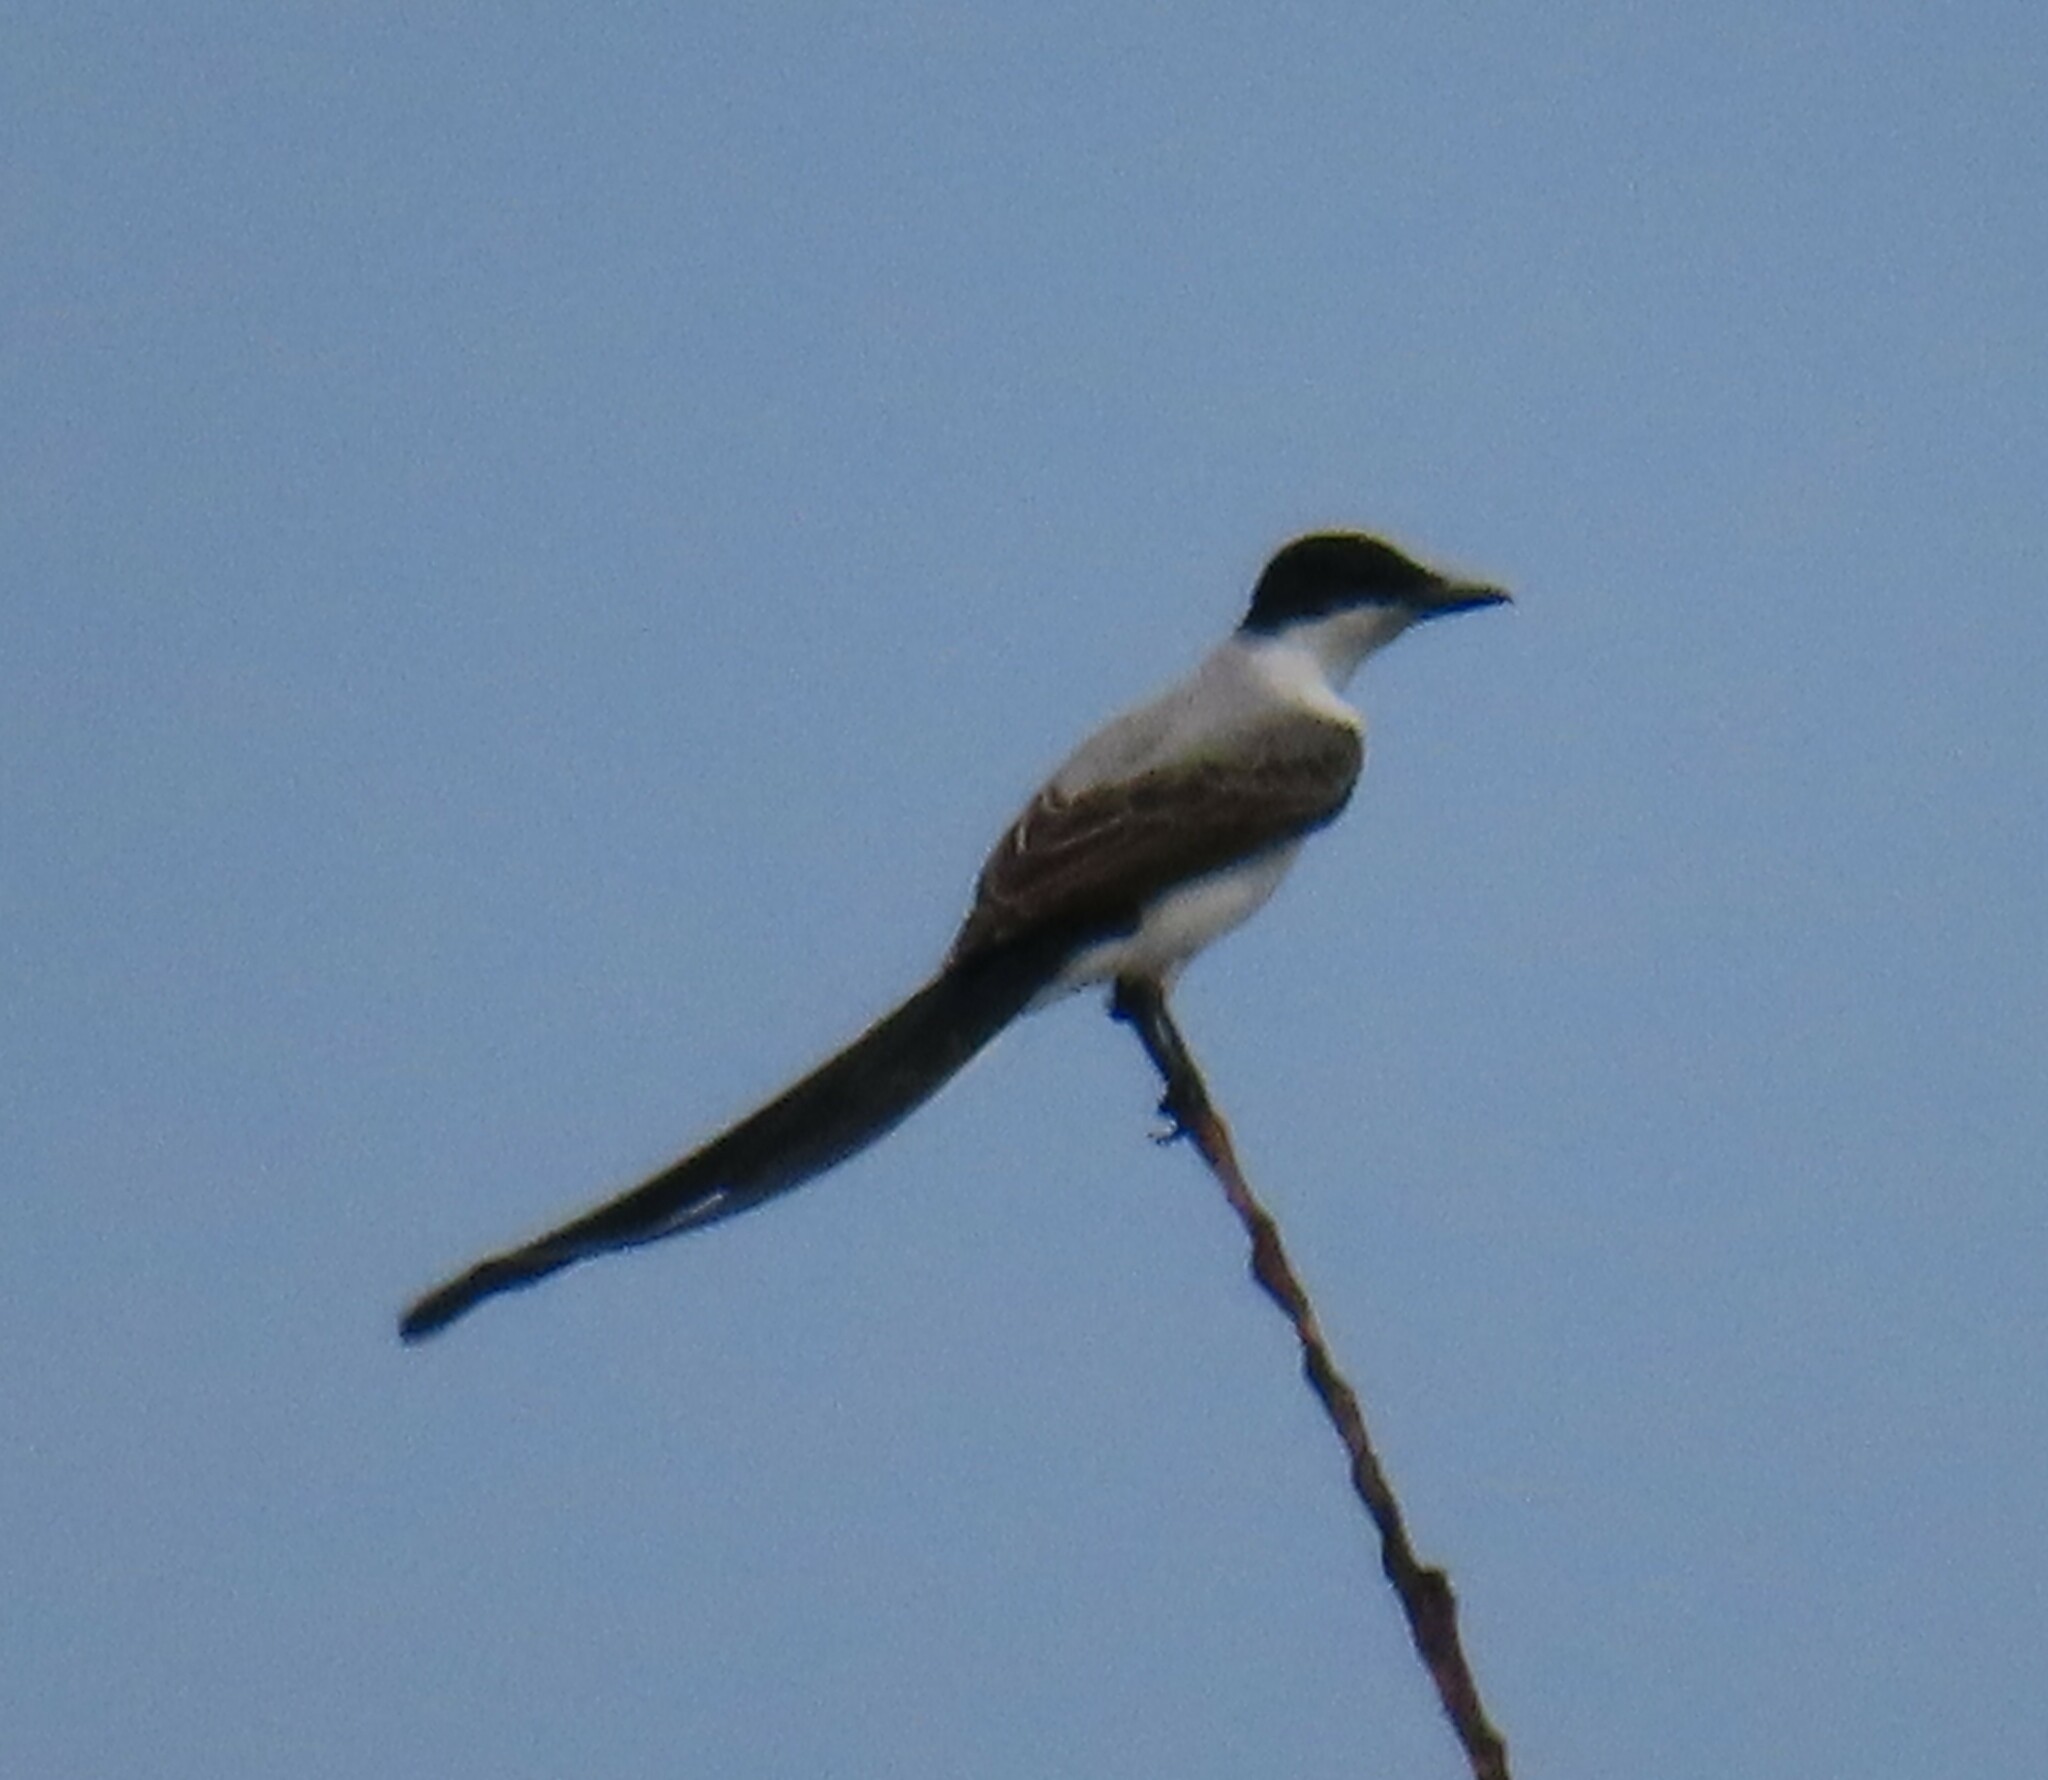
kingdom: Animalia
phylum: Chordata
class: Aves
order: Passeriformes
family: Tyrannidae
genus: Tyrannus
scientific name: Tyrannus savana
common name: Fork-tailed flycatcher
